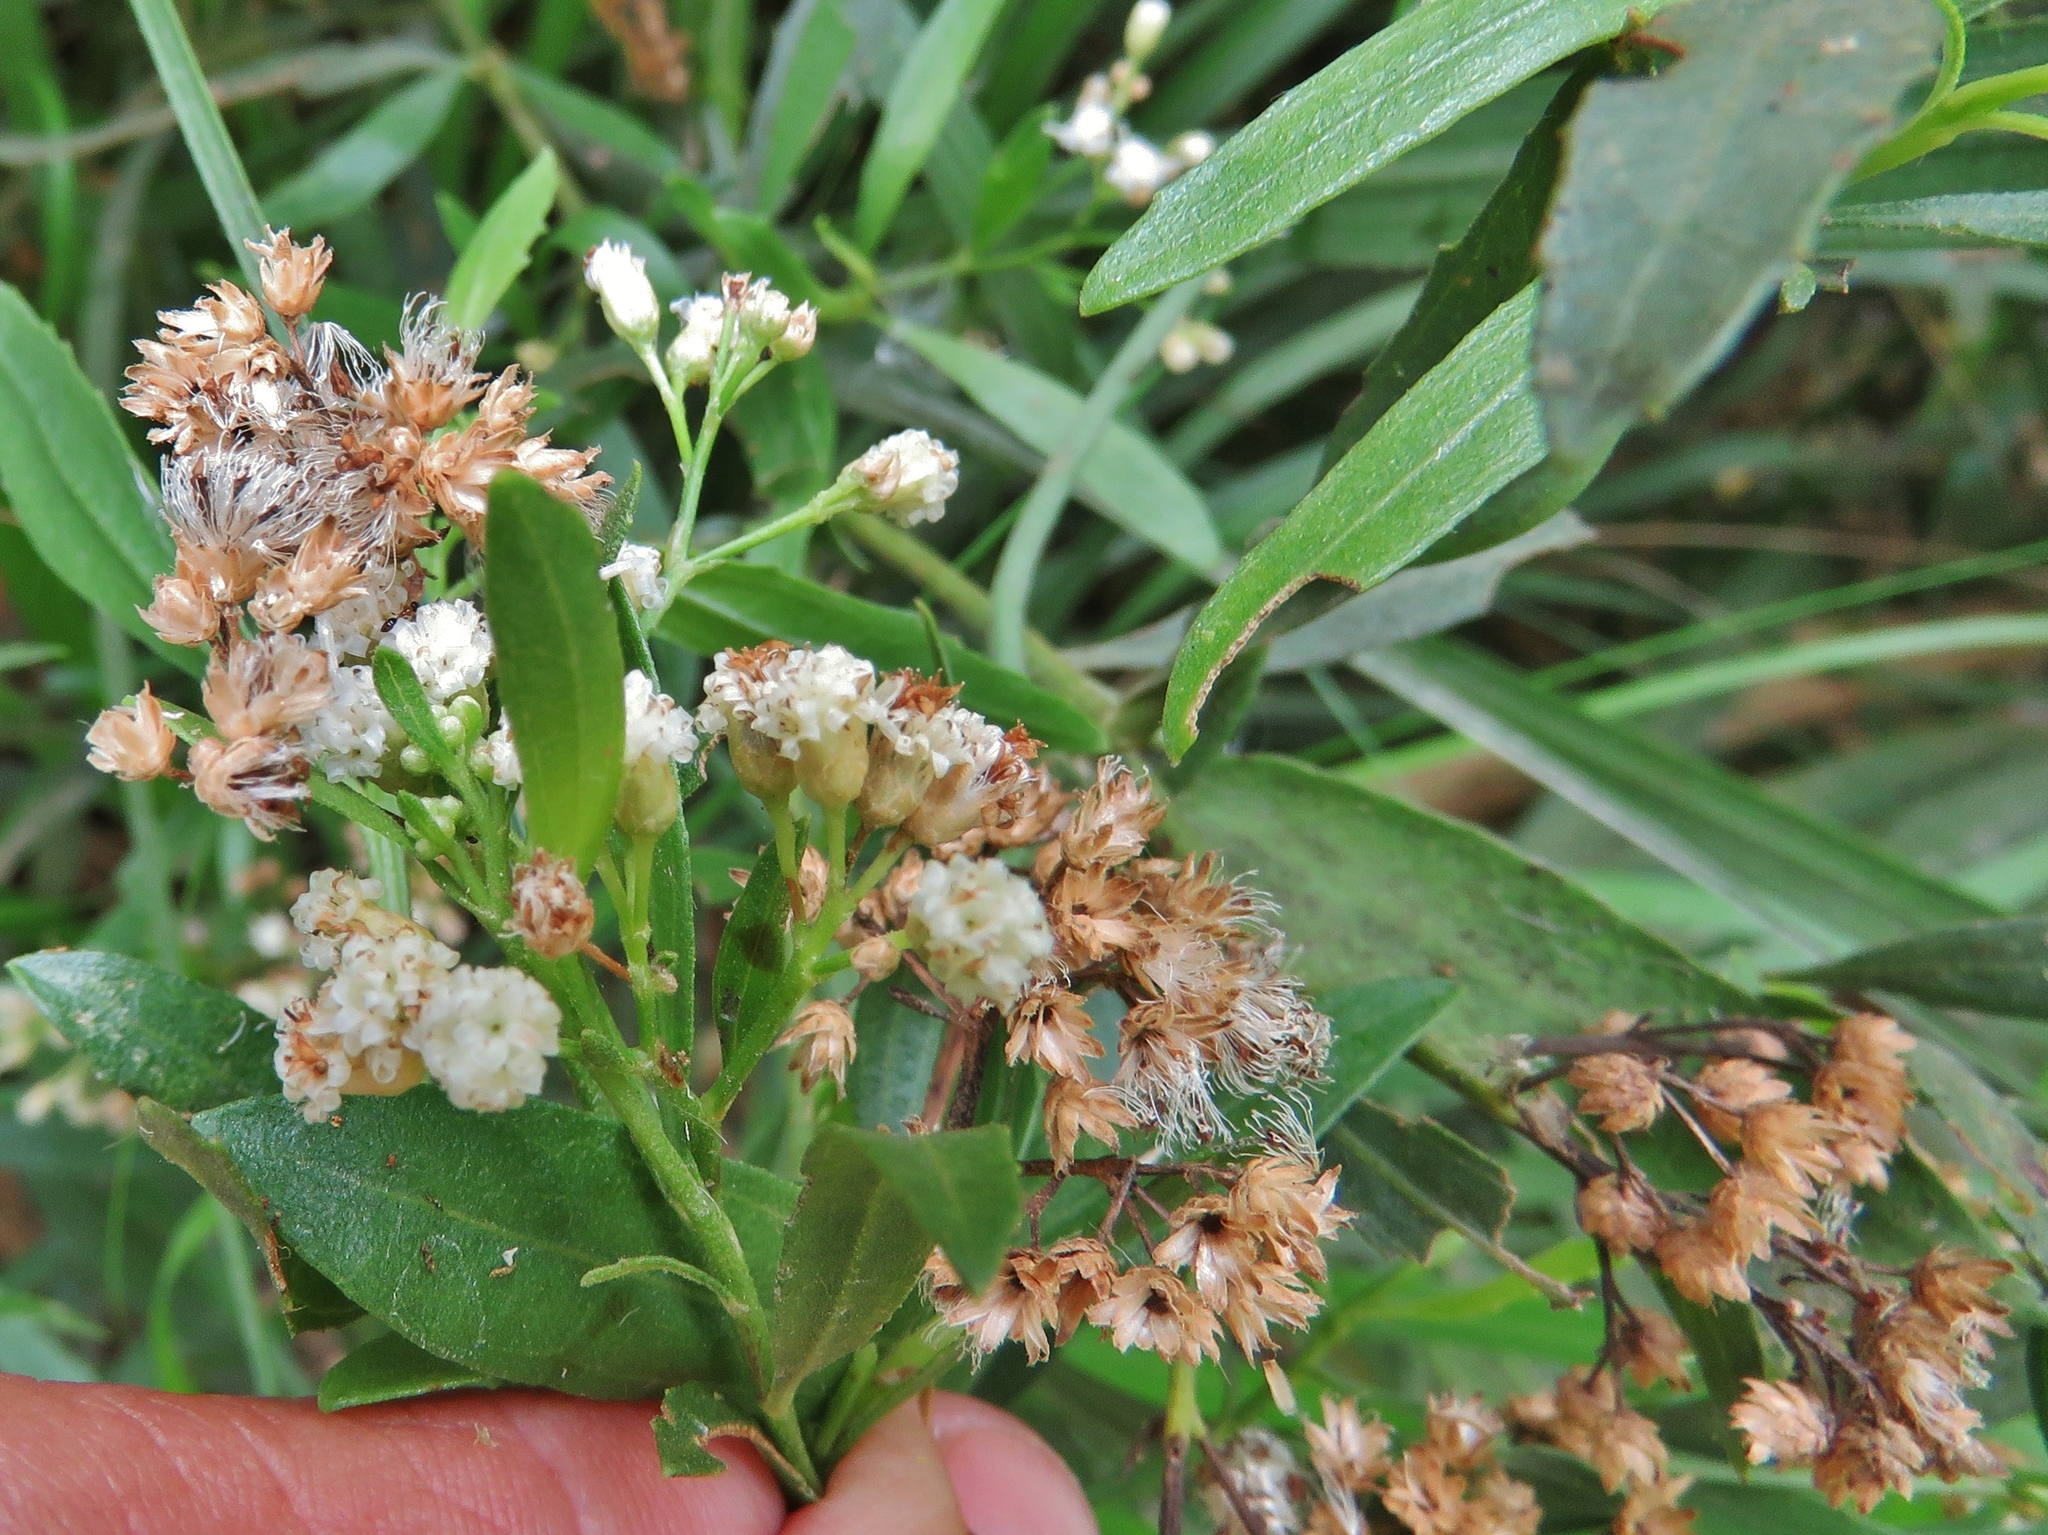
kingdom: Plantae
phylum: Tracheophyta
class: Magnoliopsida
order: Asterales
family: Asteraceae
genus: Baccharis
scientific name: Baccharis salicifolia
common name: Sticky baccharis
